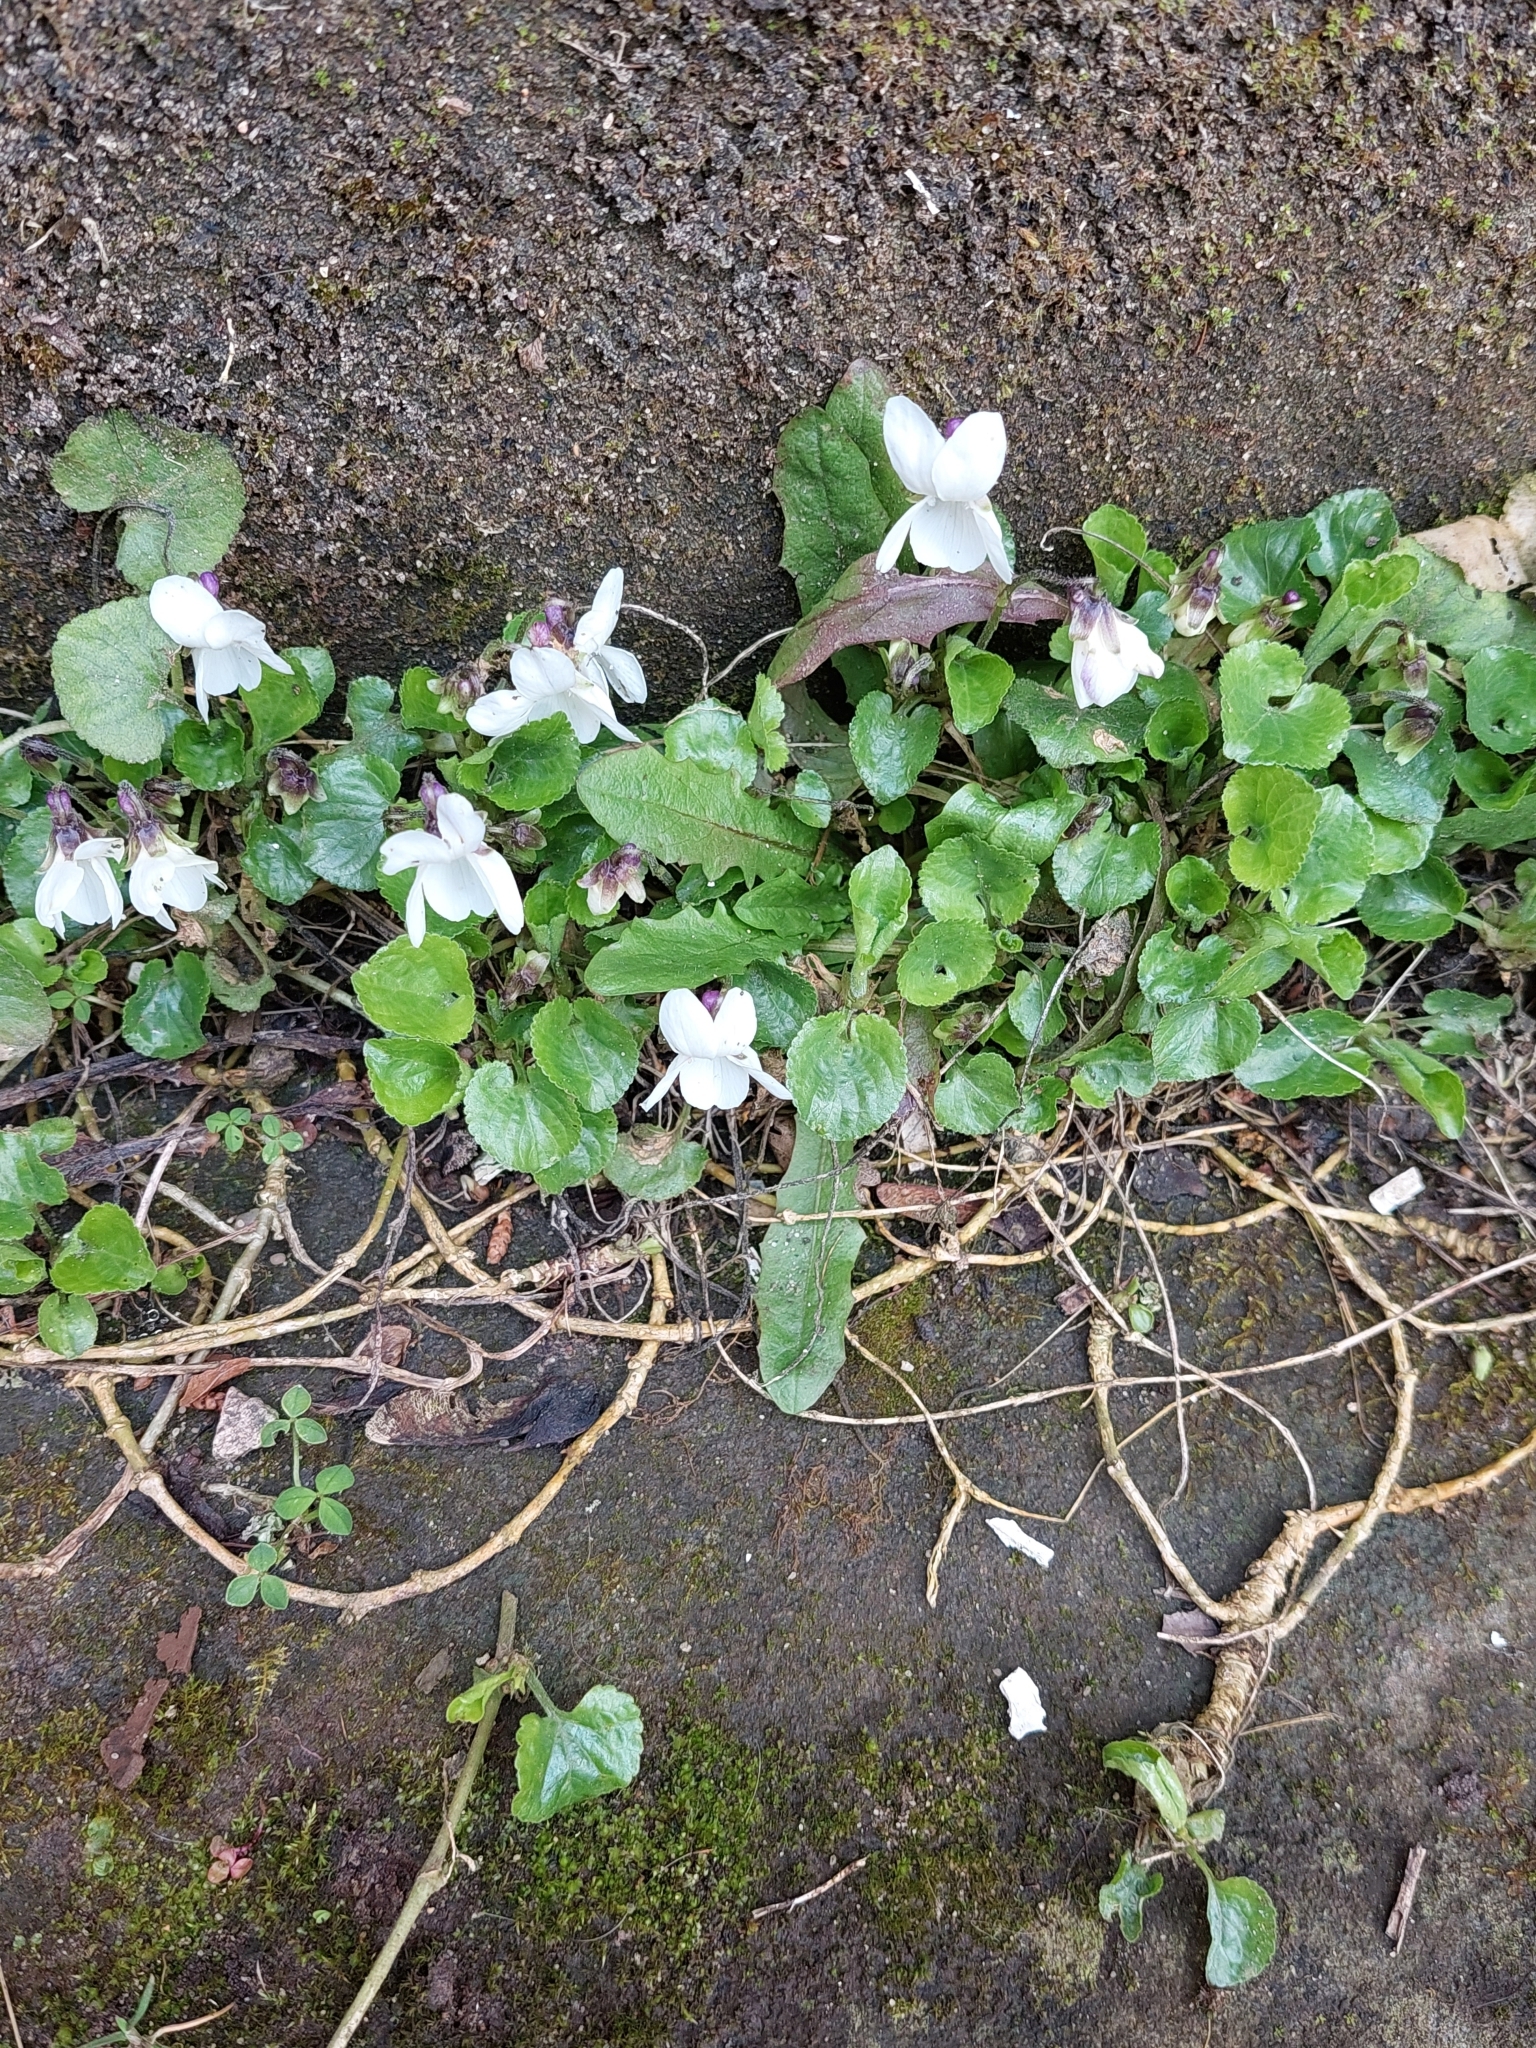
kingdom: Plantae
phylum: Tracheophyta
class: Magnoliopsida
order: Malpighiales
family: Violaceae
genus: Viola
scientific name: Viola odorata
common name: Sweet violet
